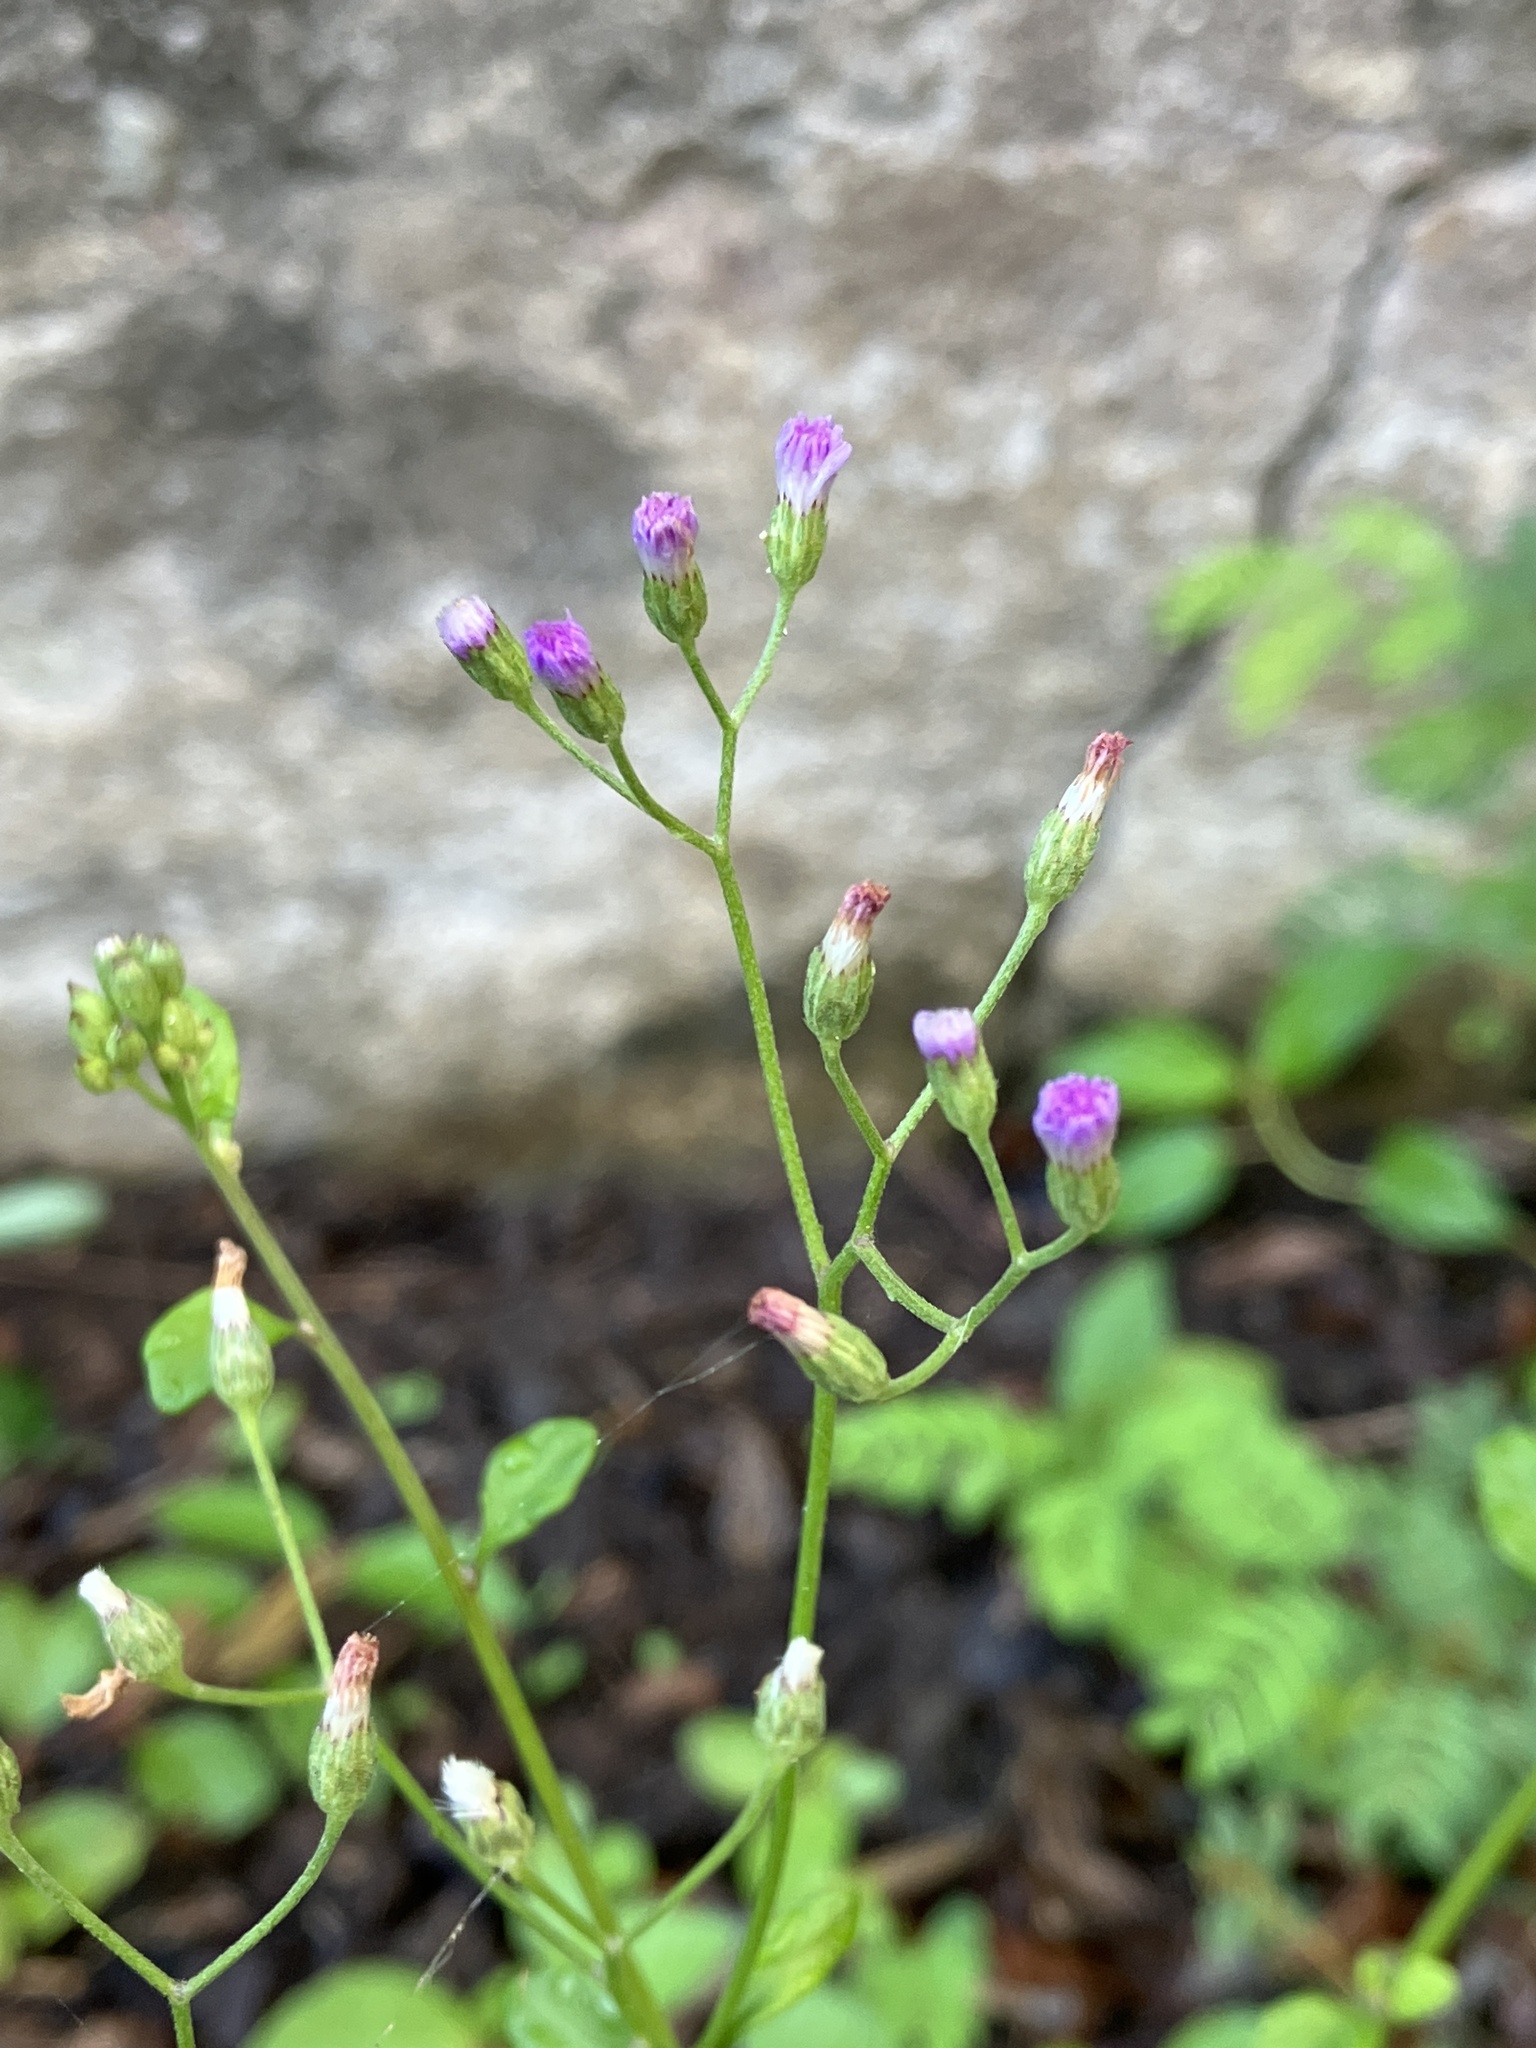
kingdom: Plantae
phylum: Tracheophyta
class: Magnoliopsida
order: Asterales
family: Asteraceae
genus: Cyanthillium
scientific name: Cyanthillium cinereum
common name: Little ironweed
